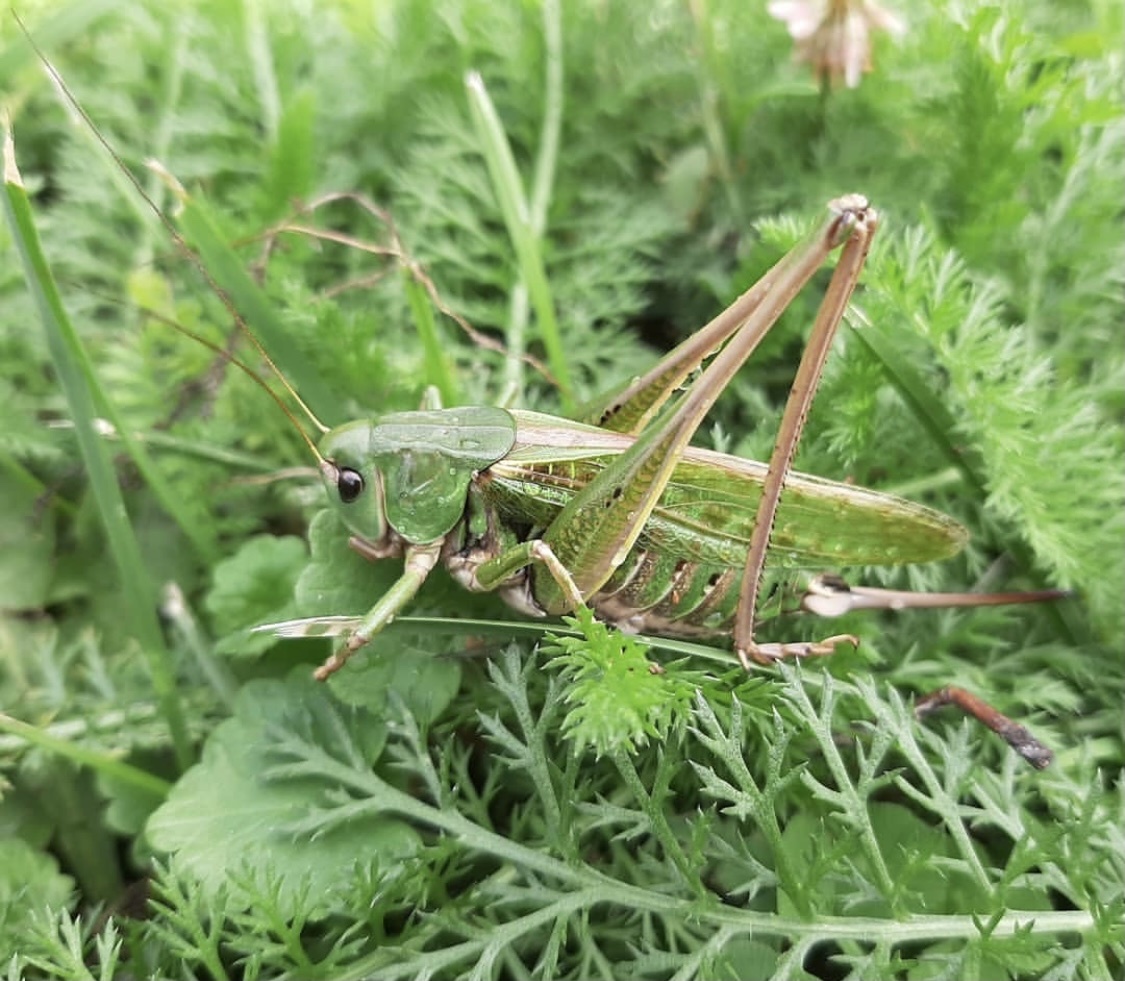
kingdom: Animalia
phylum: Arthropoda
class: Insecta
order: Orthoptera
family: Tettigoniidae
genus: Decticus
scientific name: Decticus verrucivorus
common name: Wart-biter
